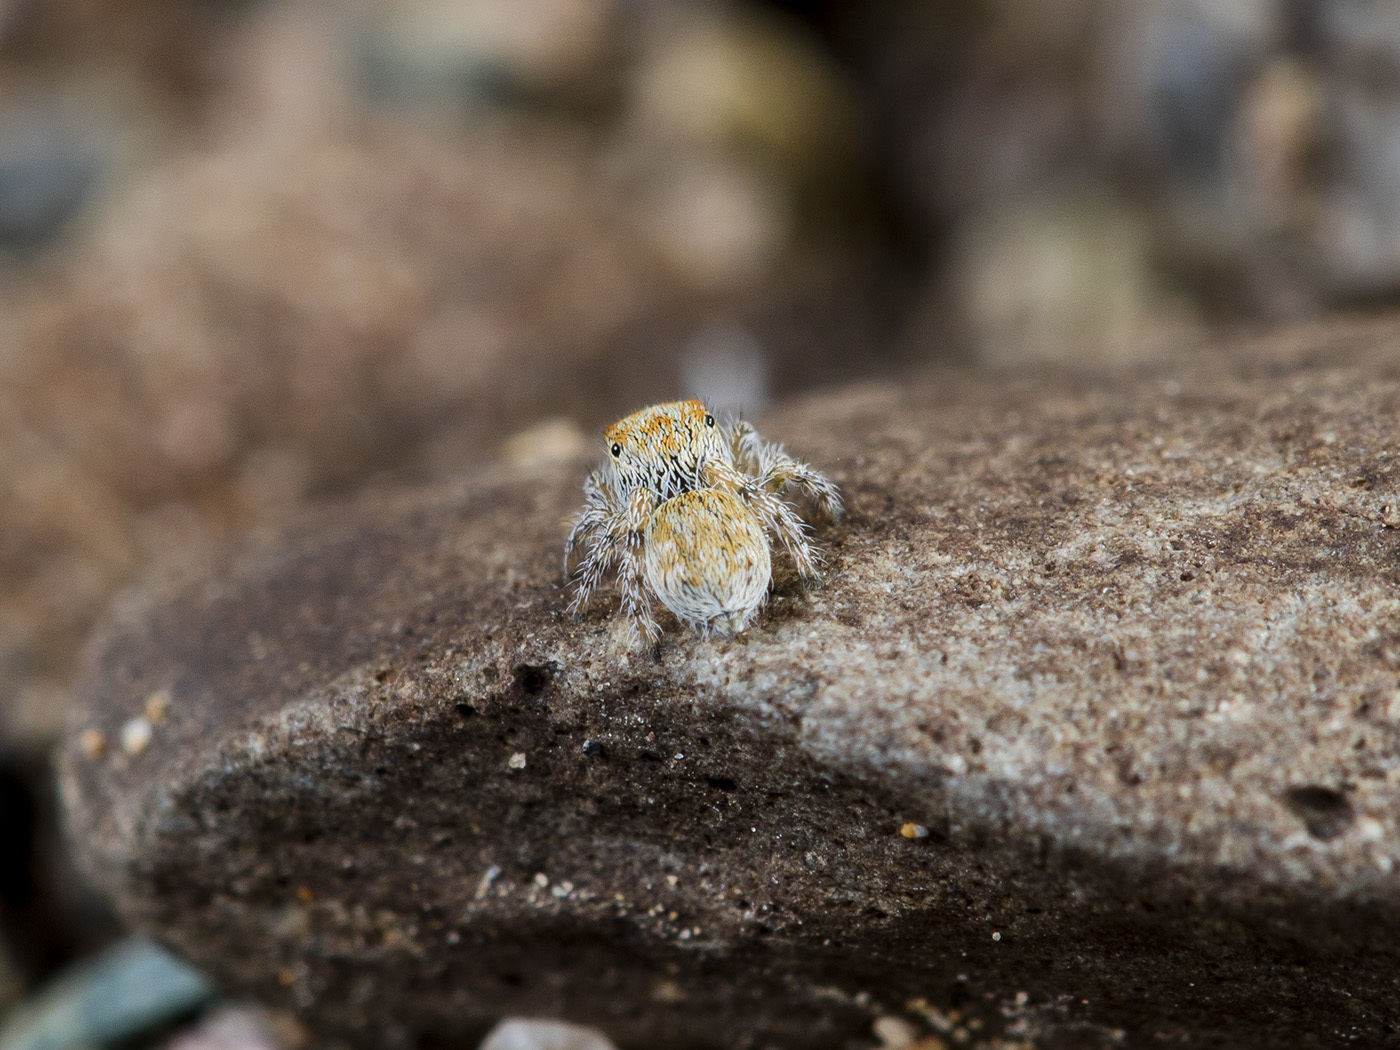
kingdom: Animalia
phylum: Arthropoda
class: Arachnida
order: Araneae
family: Salticidae
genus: Yllenus
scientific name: Yllenus zyuzini
